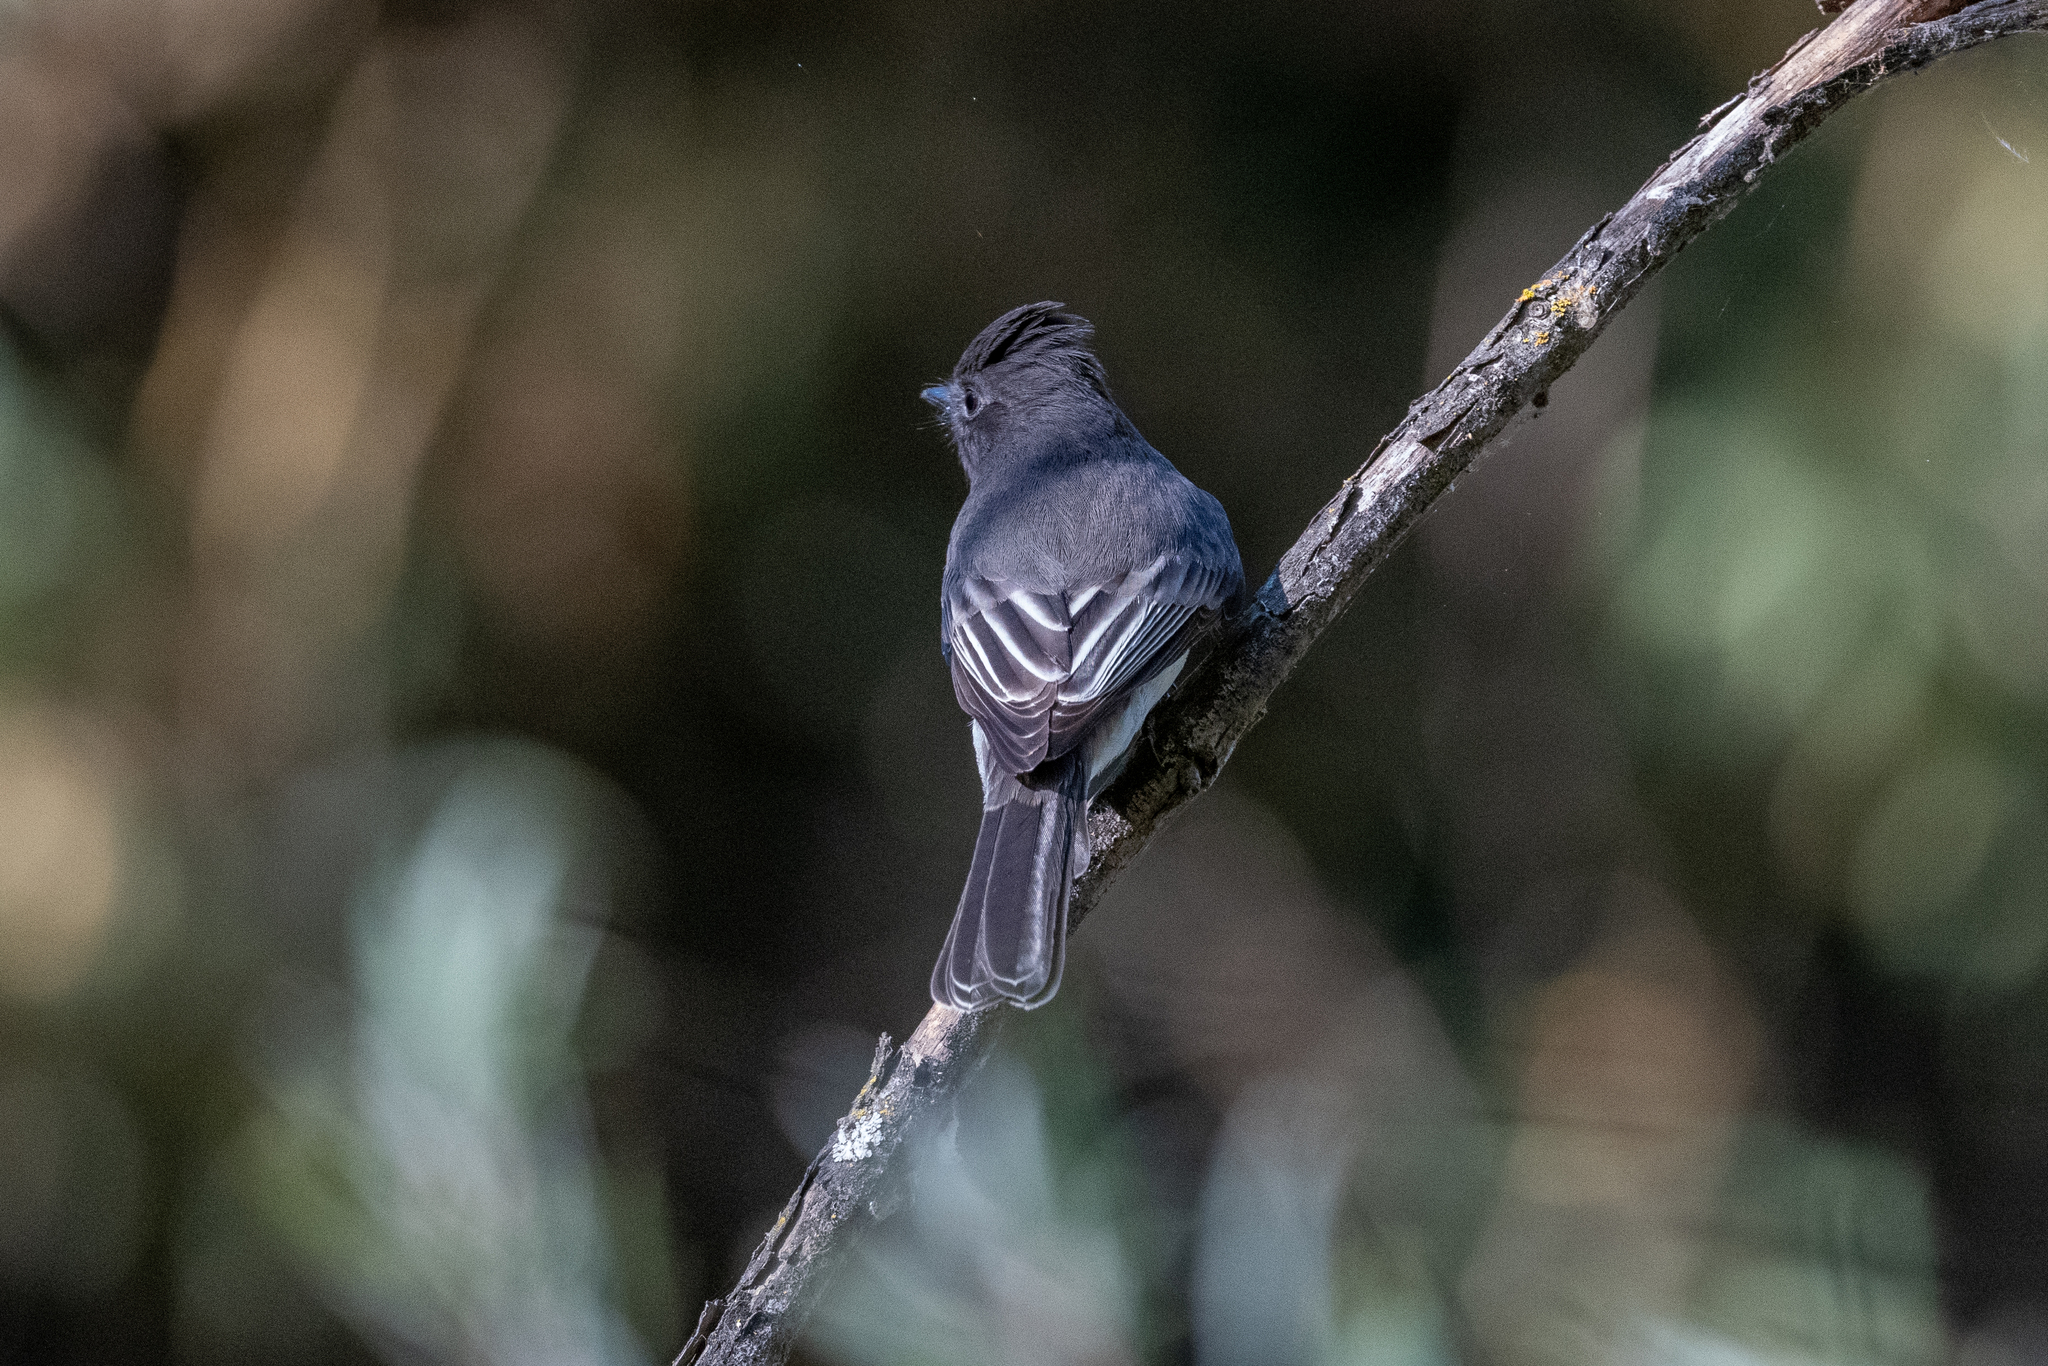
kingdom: Animalia
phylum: Chordata
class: Aves
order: Passeriformes
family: Tyrannidae
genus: Sayornis
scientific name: Sayornis nigricans
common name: Black phoebe
